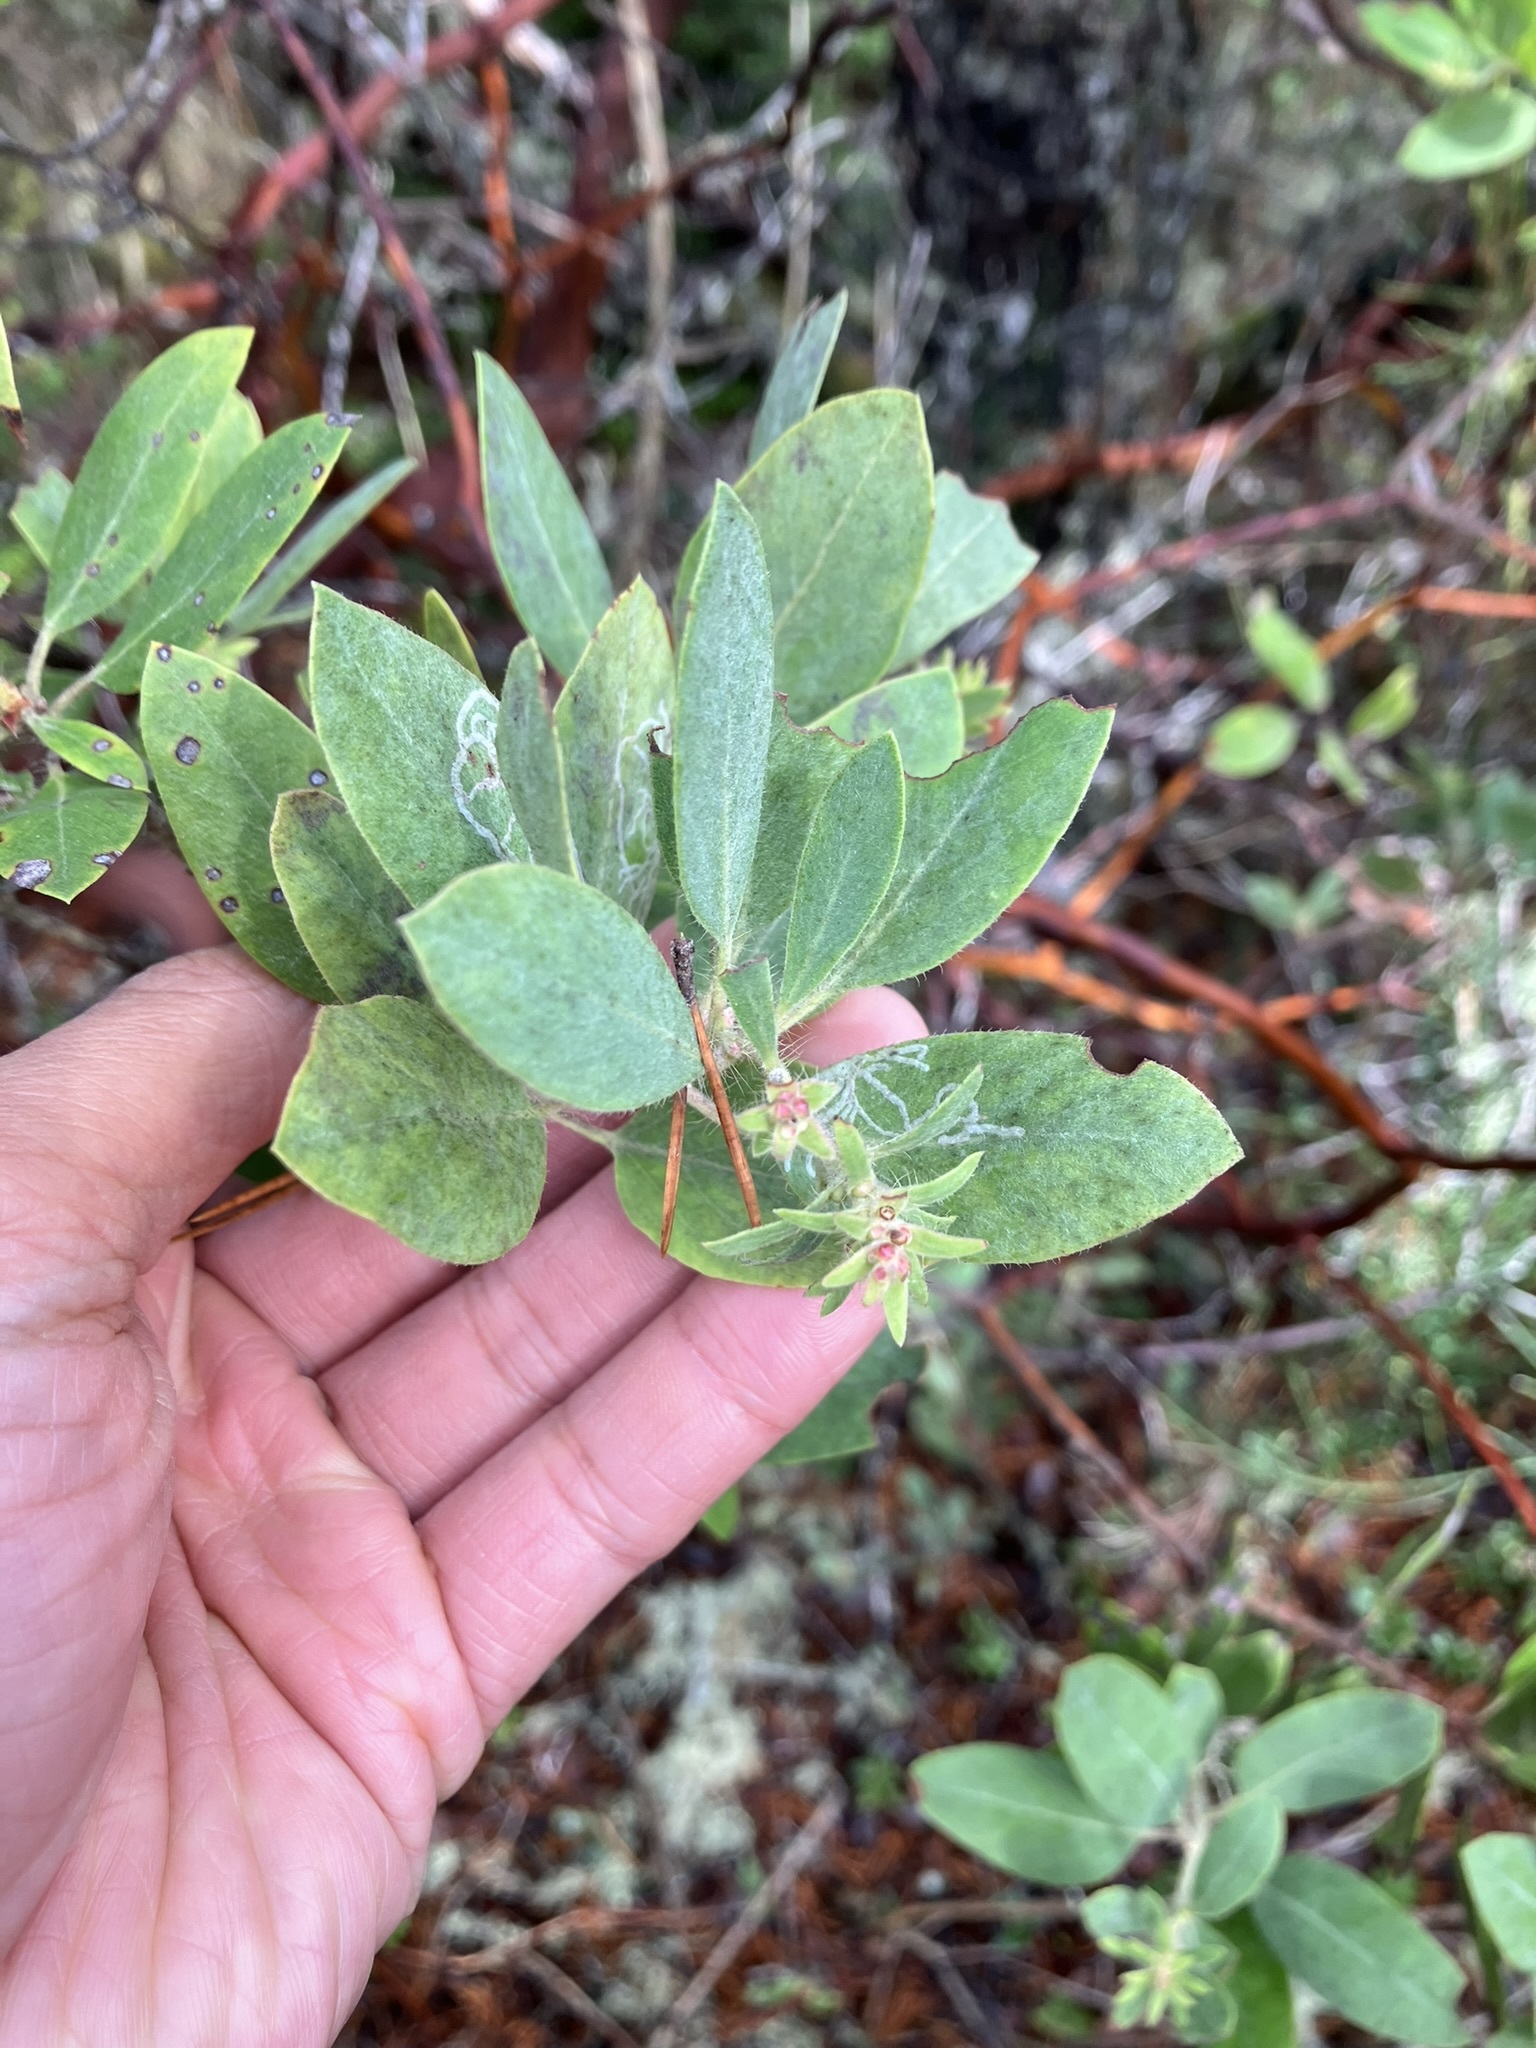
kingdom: Plantae
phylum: Tracheophyta
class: Magnoliopsida
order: Ericales
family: Ericaceae
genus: Arctostaphylos
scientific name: Arctostaphylos columbiana
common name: Bristly bearberry
